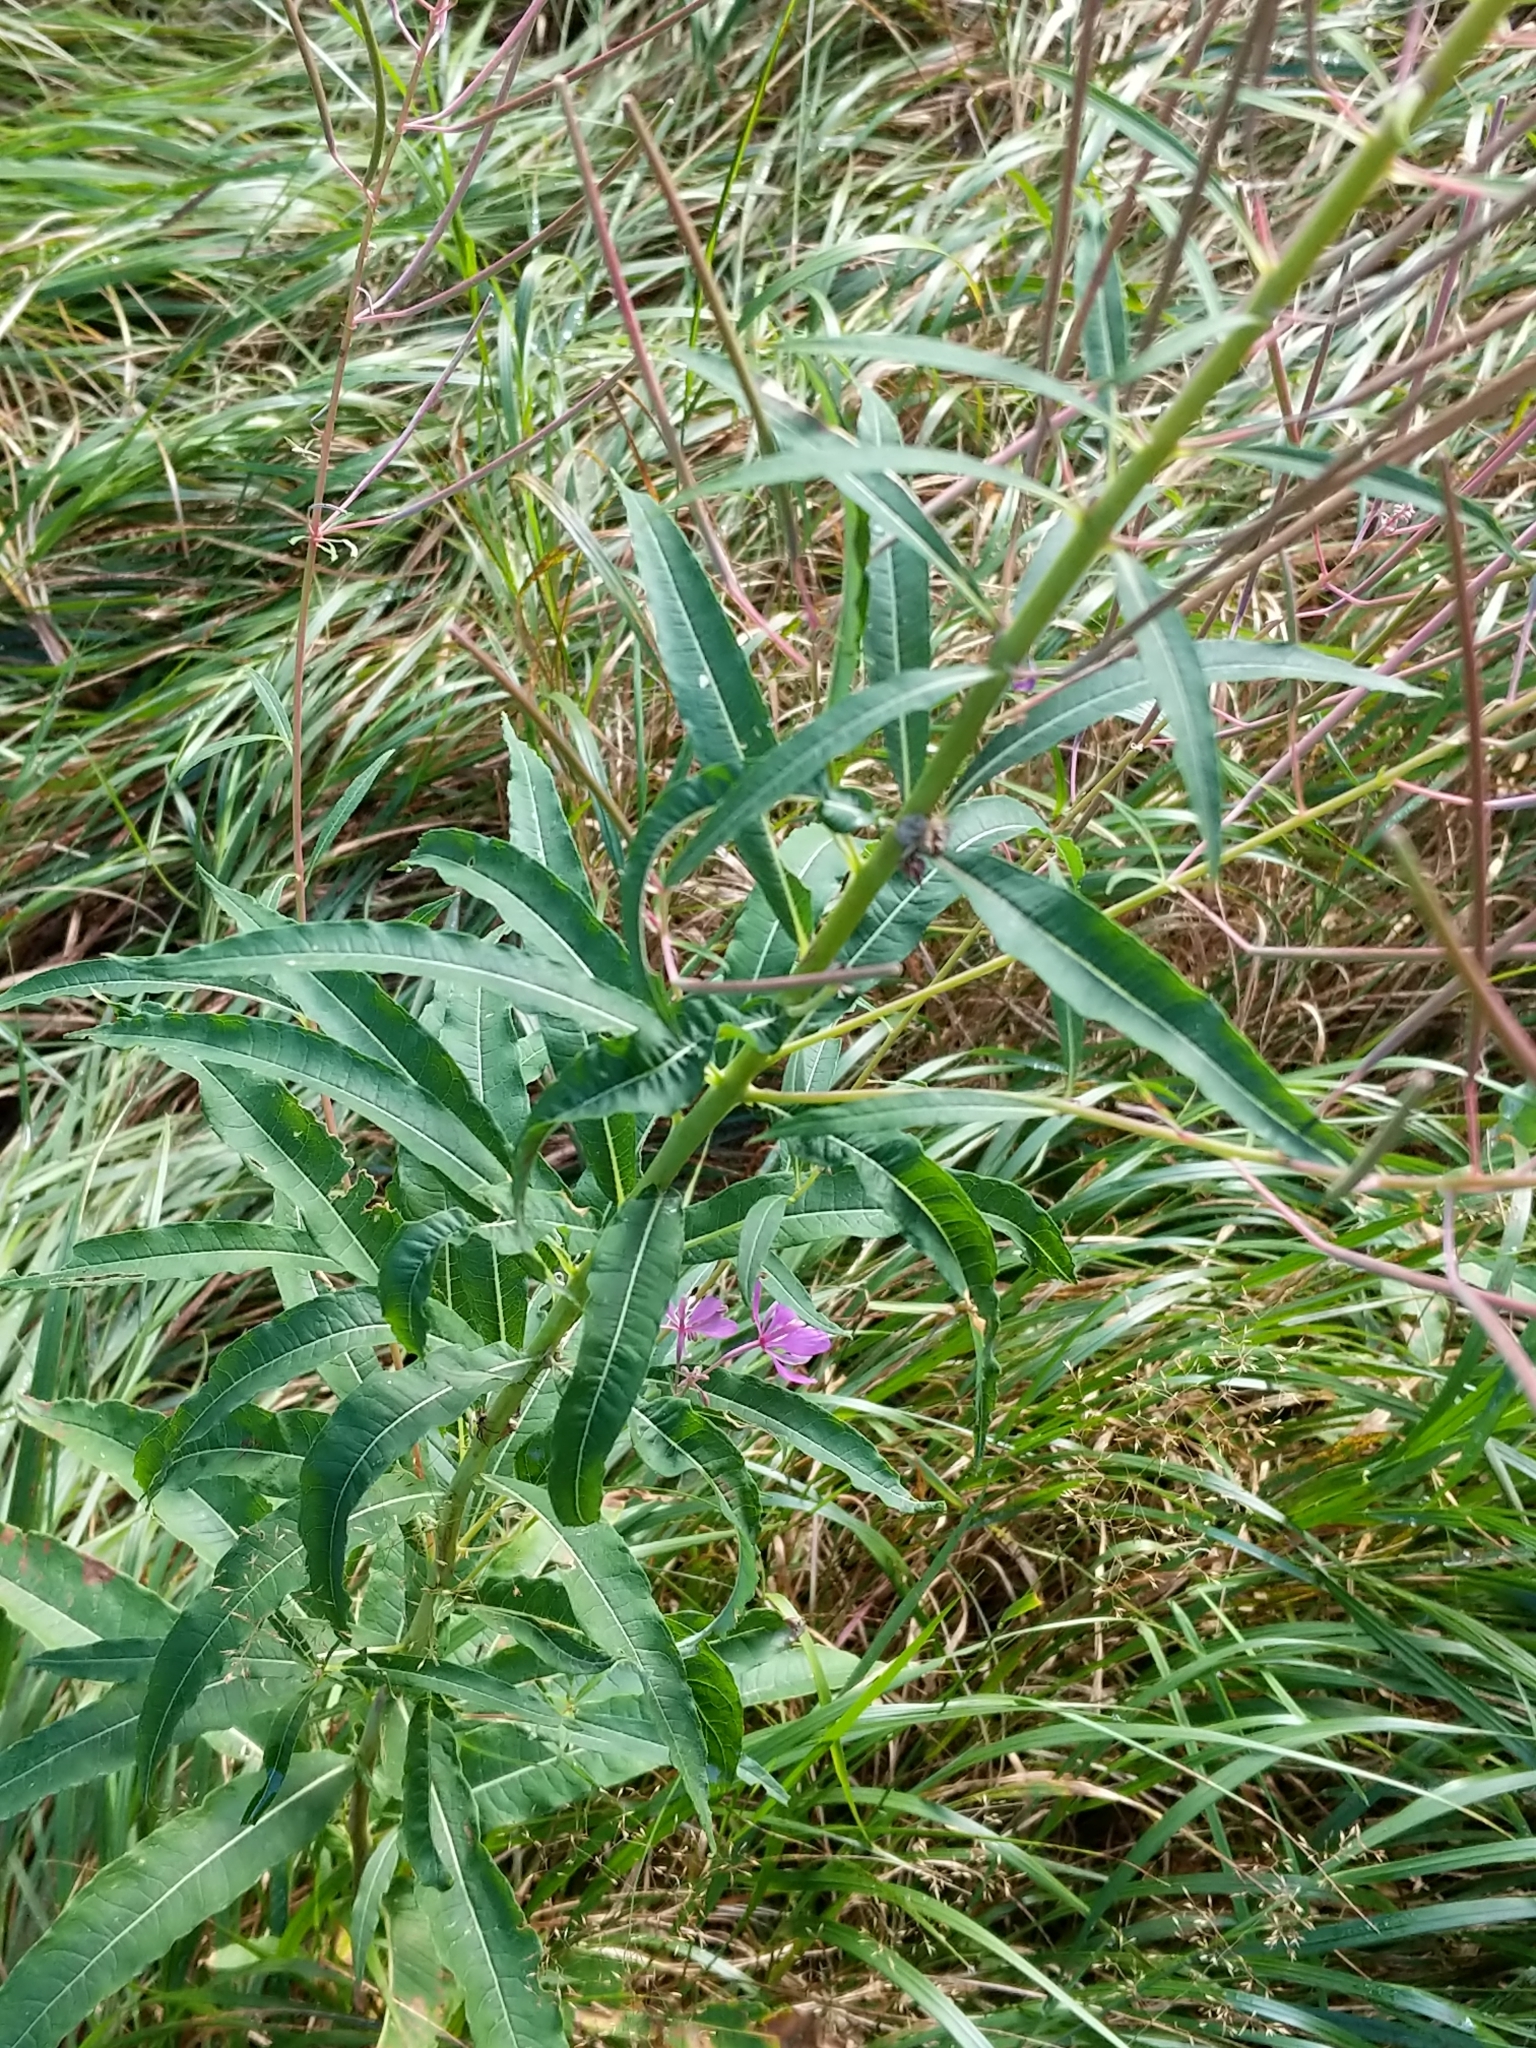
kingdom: Plantae
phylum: Tracheophyta
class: Magnoliopsida
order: Myrtales
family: Onagraceae
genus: Chamaenerion
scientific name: Chamaenerion angustifolium
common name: Fireweed
